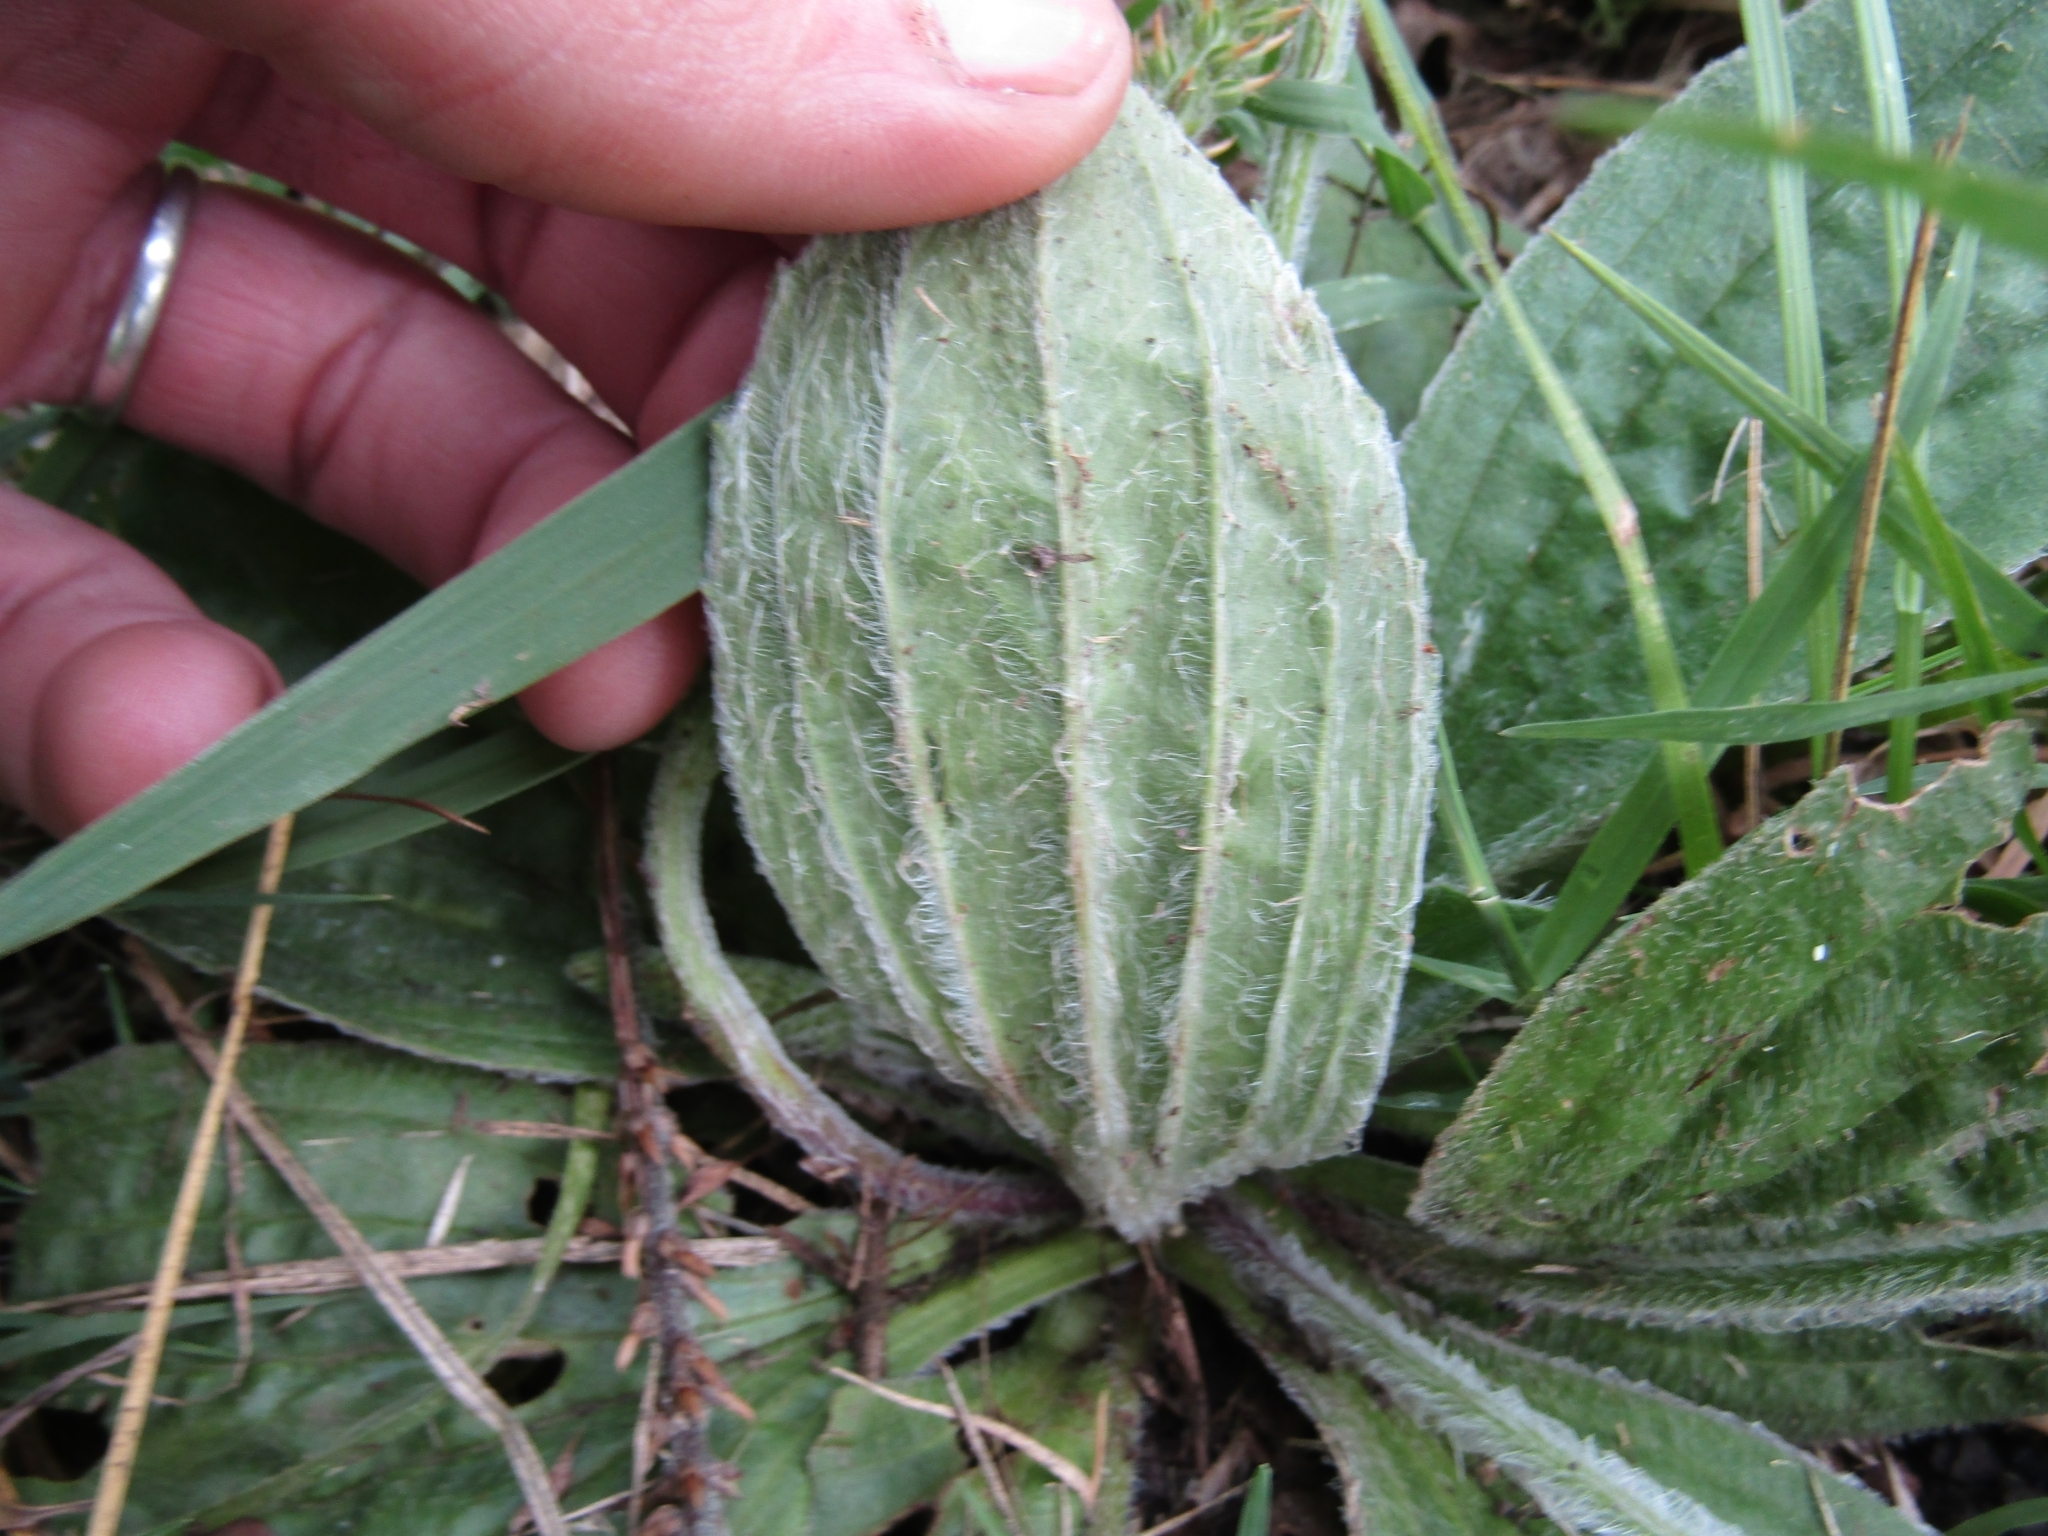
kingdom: Plantae
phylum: Tracheophyta
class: Magnoliopsida
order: Lamiales
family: Plantaginaceae
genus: Plantago
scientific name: Plantago tomentosa
